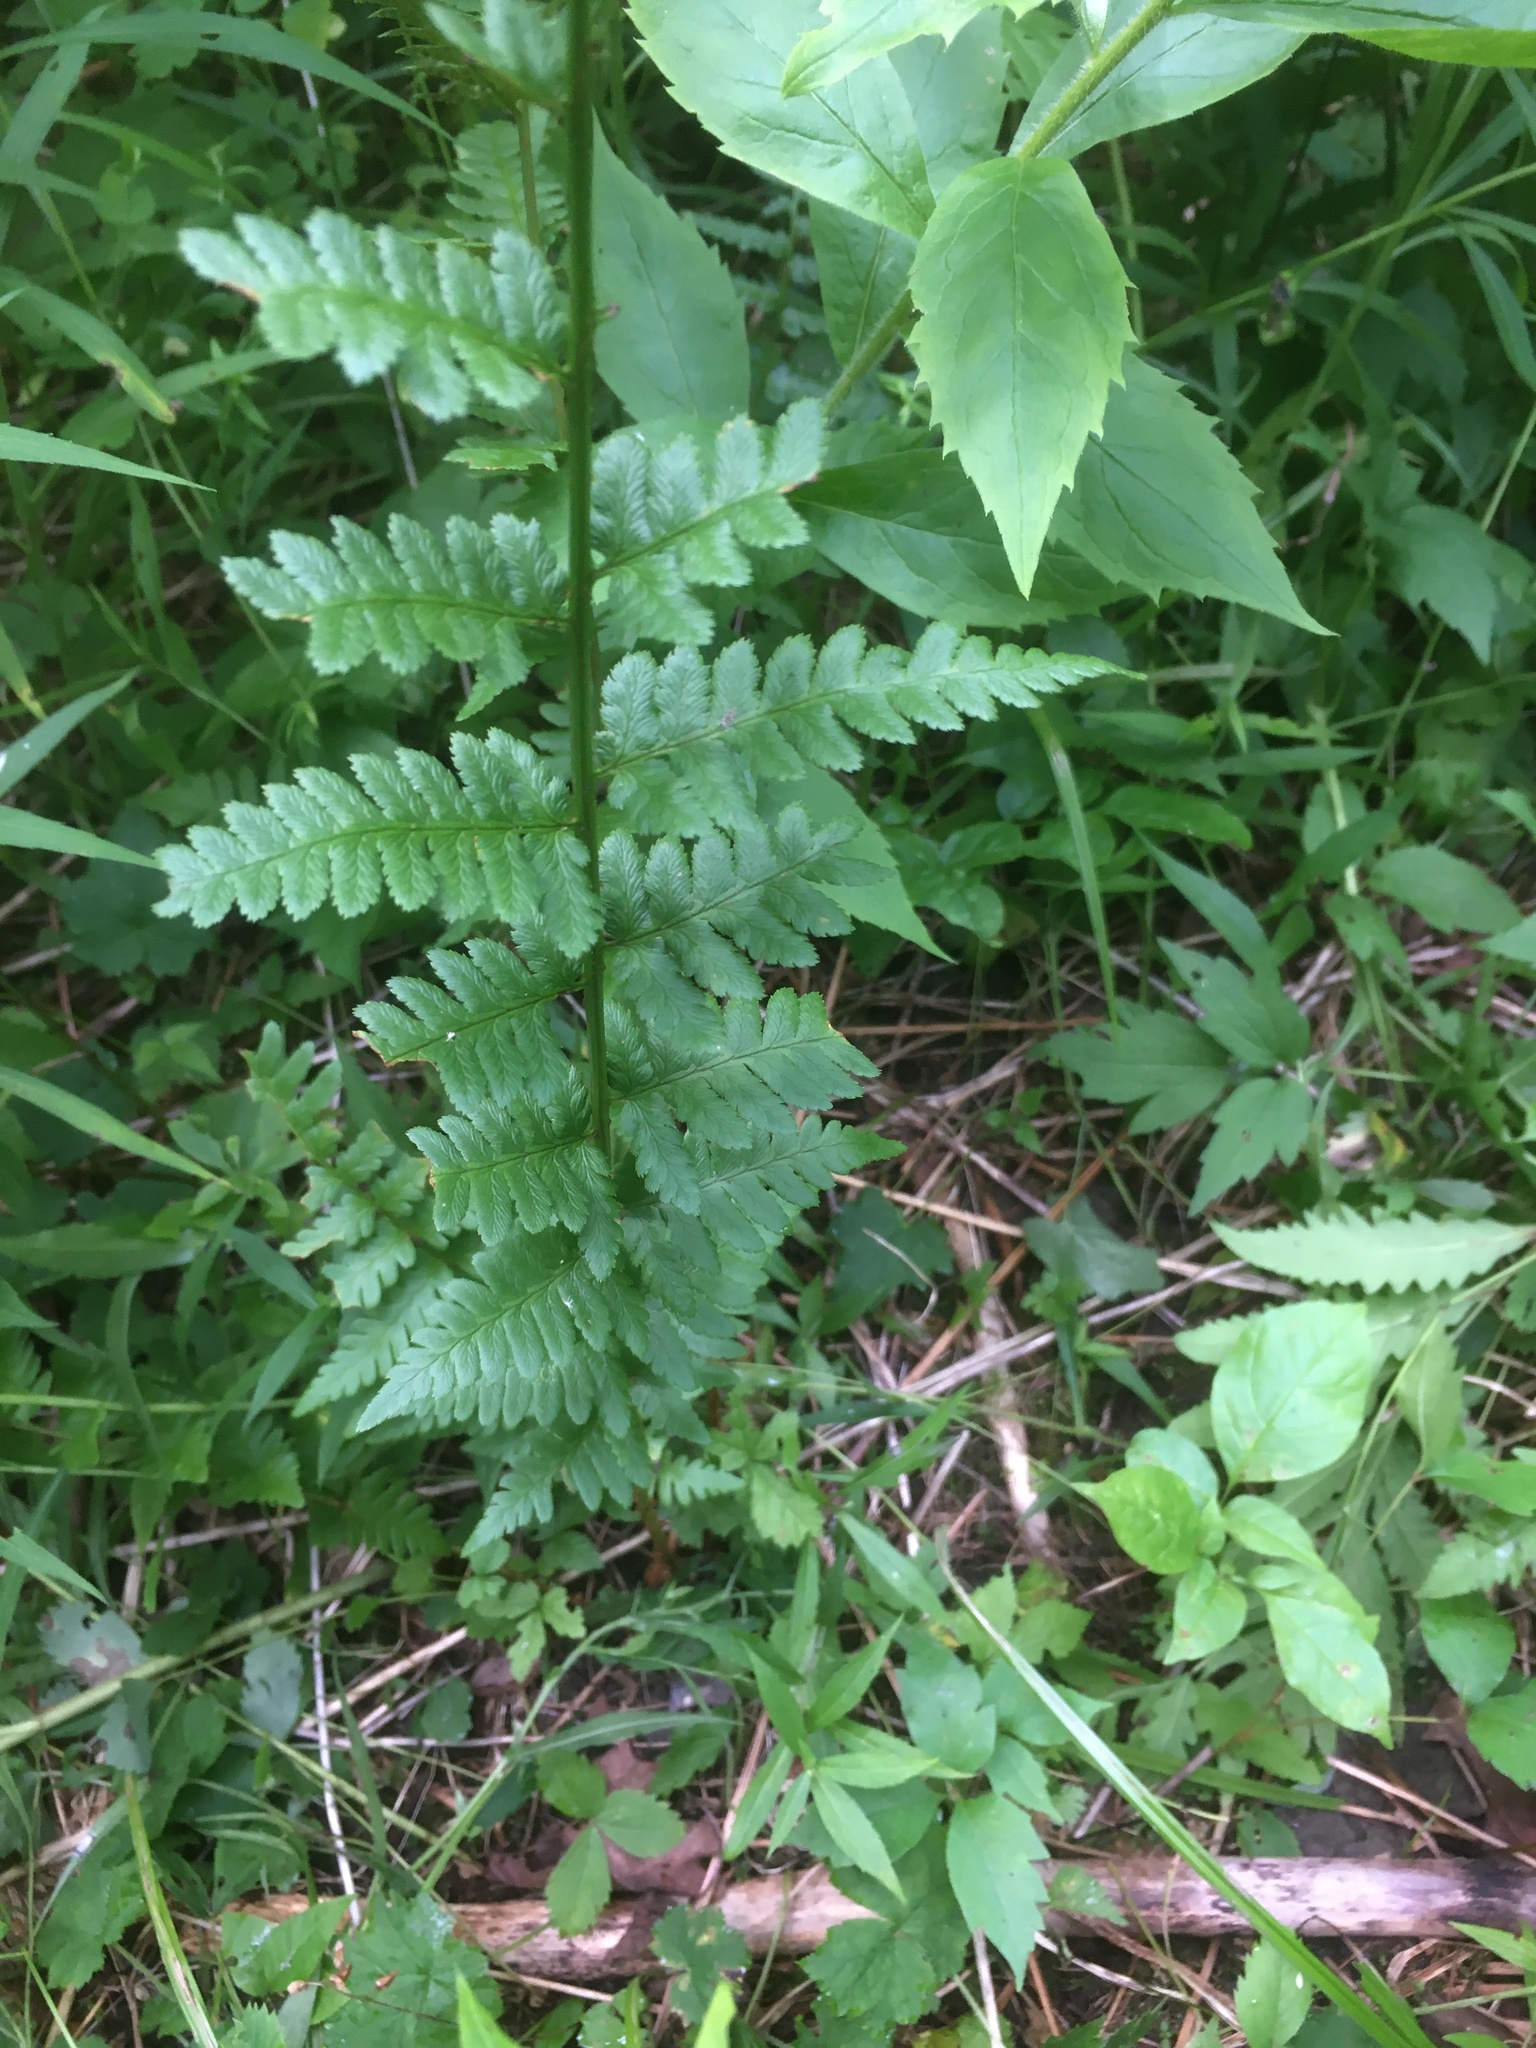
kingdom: Plantae
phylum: Tracheophyta
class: Polypodiopsida
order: Polypodiales
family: Dryopteridaceae
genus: Dryopteris
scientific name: Dryopteris cristata
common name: Crested wood fern
